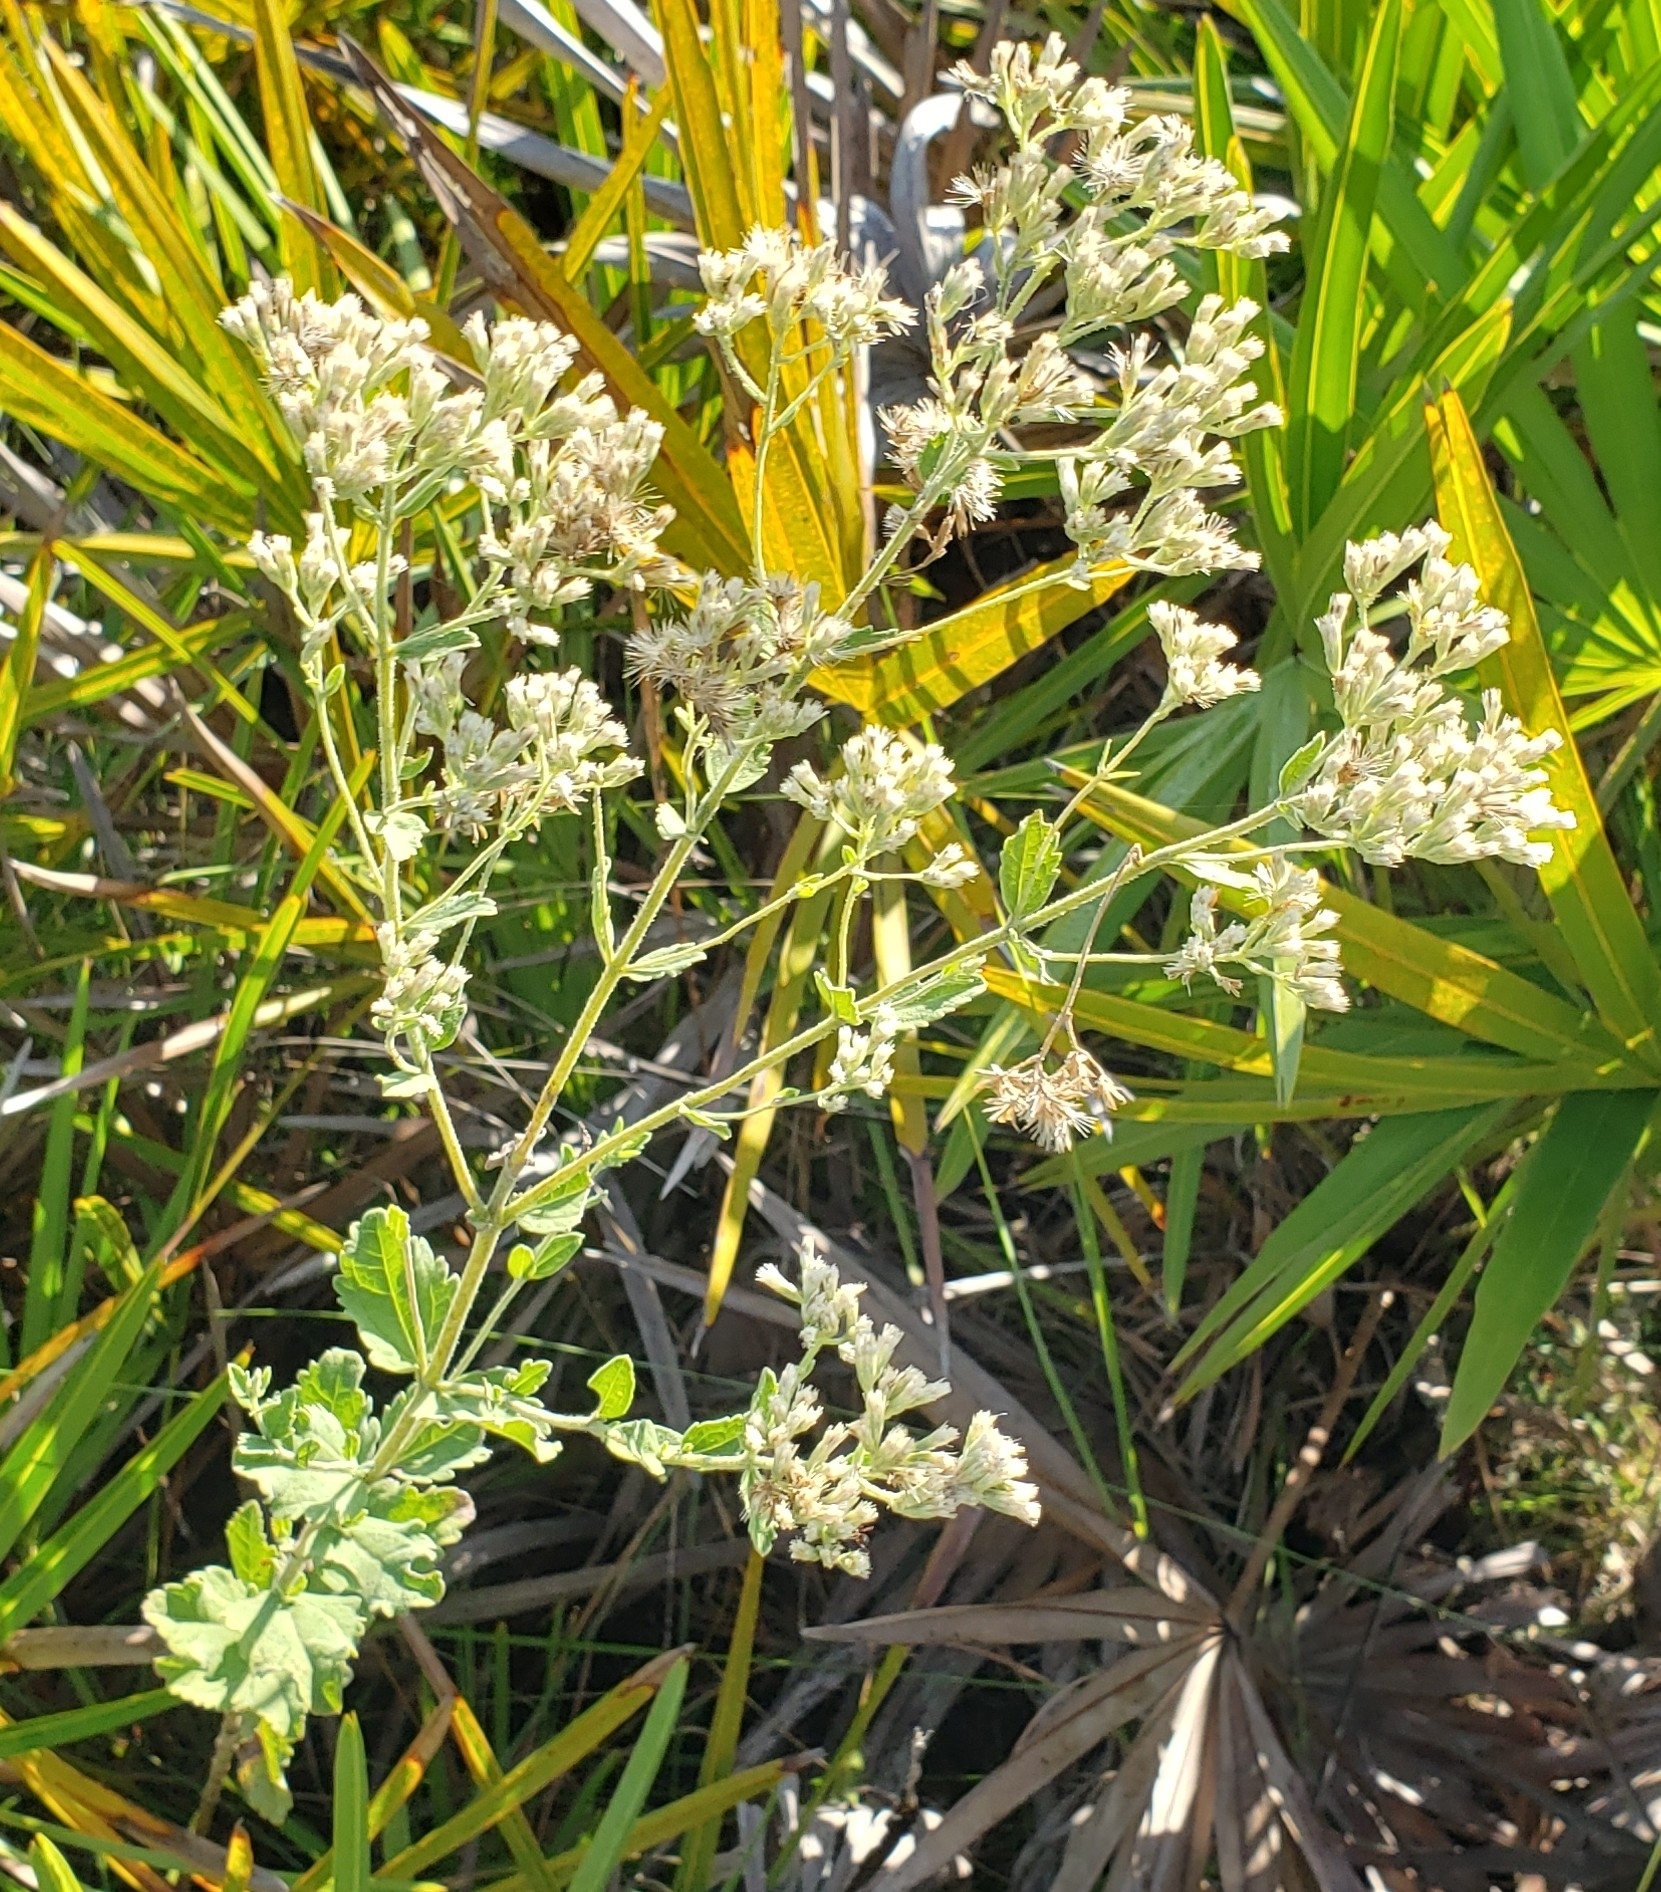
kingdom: Plantae
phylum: Tracheophyta
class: Magnoliopsida
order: Asterales
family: Asteraceae
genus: Eupatorium
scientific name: Eupatorium rotundifolium
